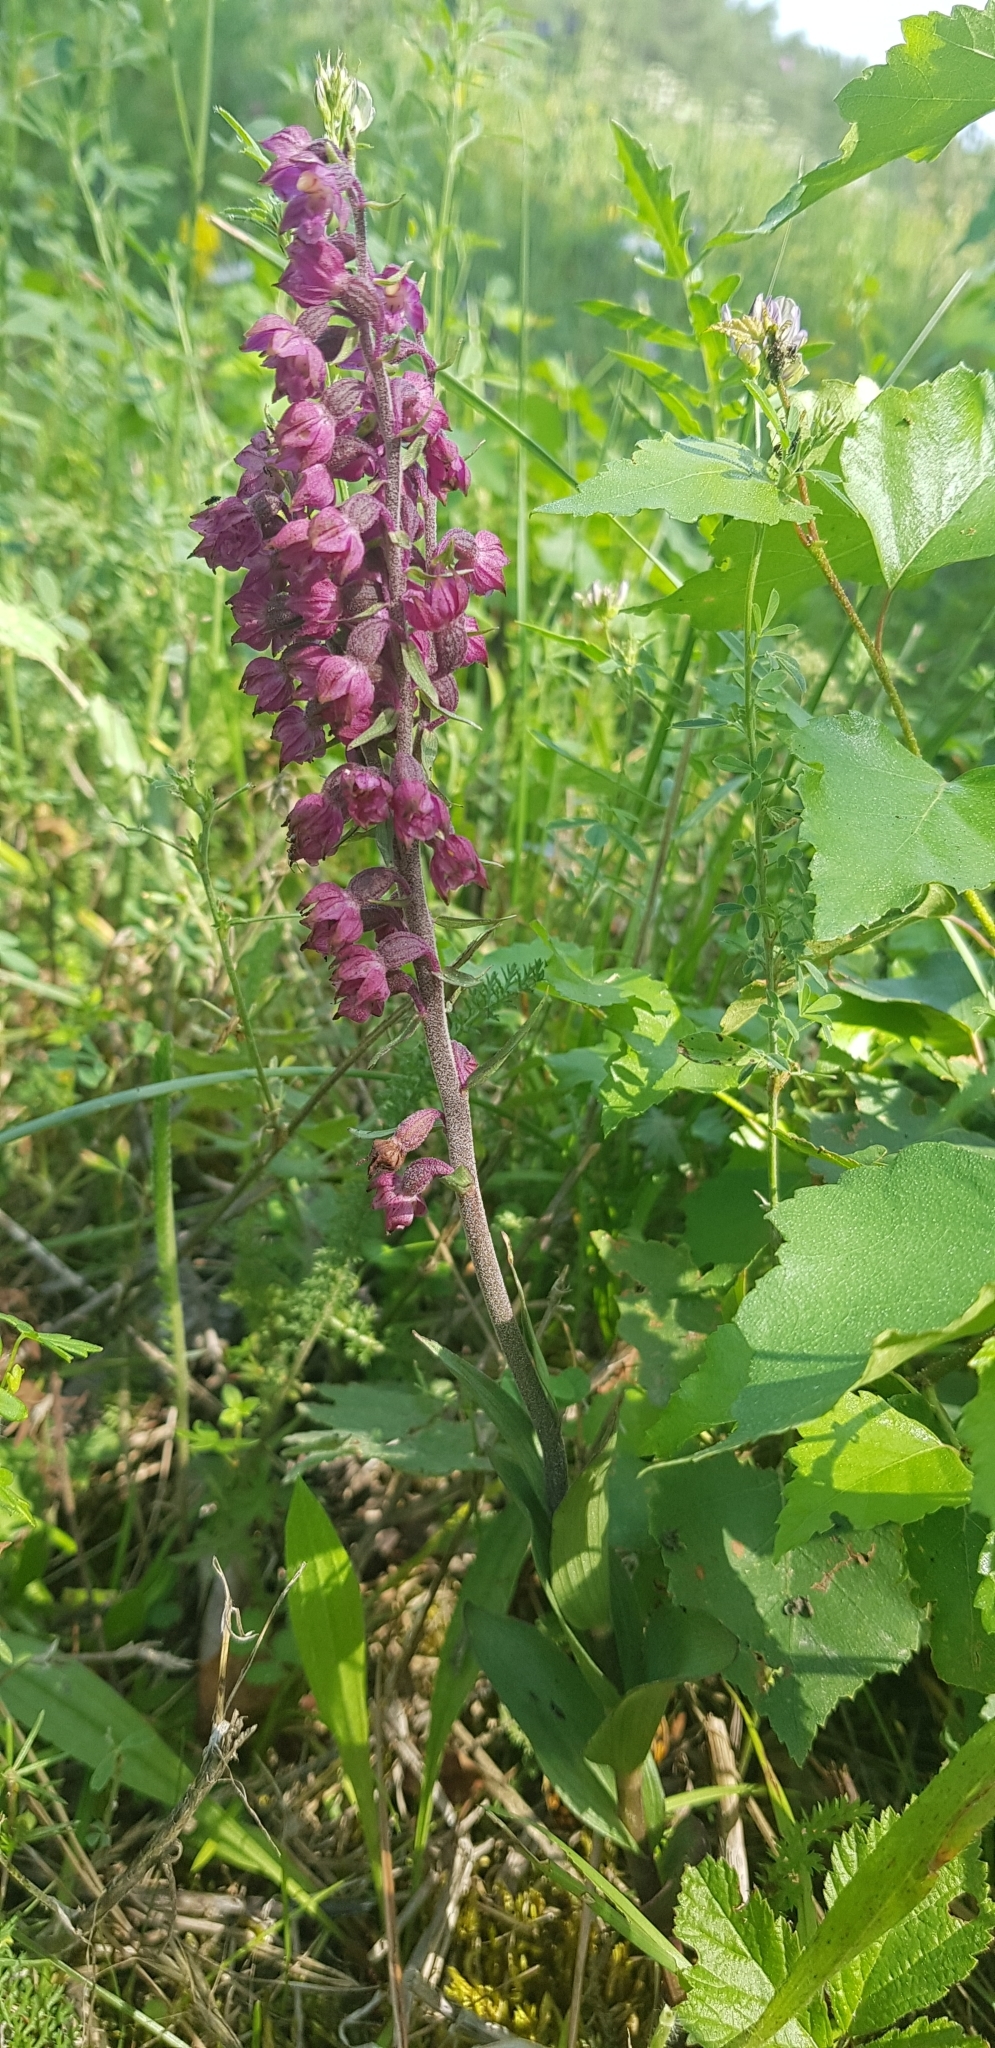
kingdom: Plantae
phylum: Tracheophyta
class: Liliopsida
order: Asparagales
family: Orchidaceae
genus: Epipactis
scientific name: Epipactis atrorubens
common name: Dark-red helleborine
